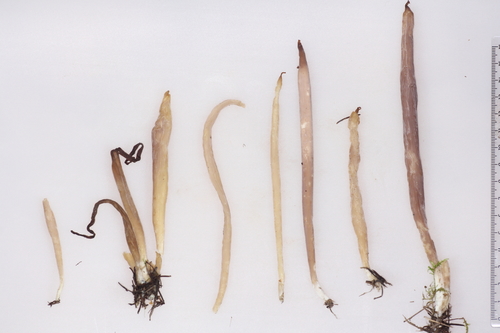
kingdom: Fungi
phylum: Basidiomycota
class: Agaricomycetes
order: Hymenochaetales
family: Rickenellaceae
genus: Alloclavaria
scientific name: Alloclavaria purpurea
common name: Purple spindles
